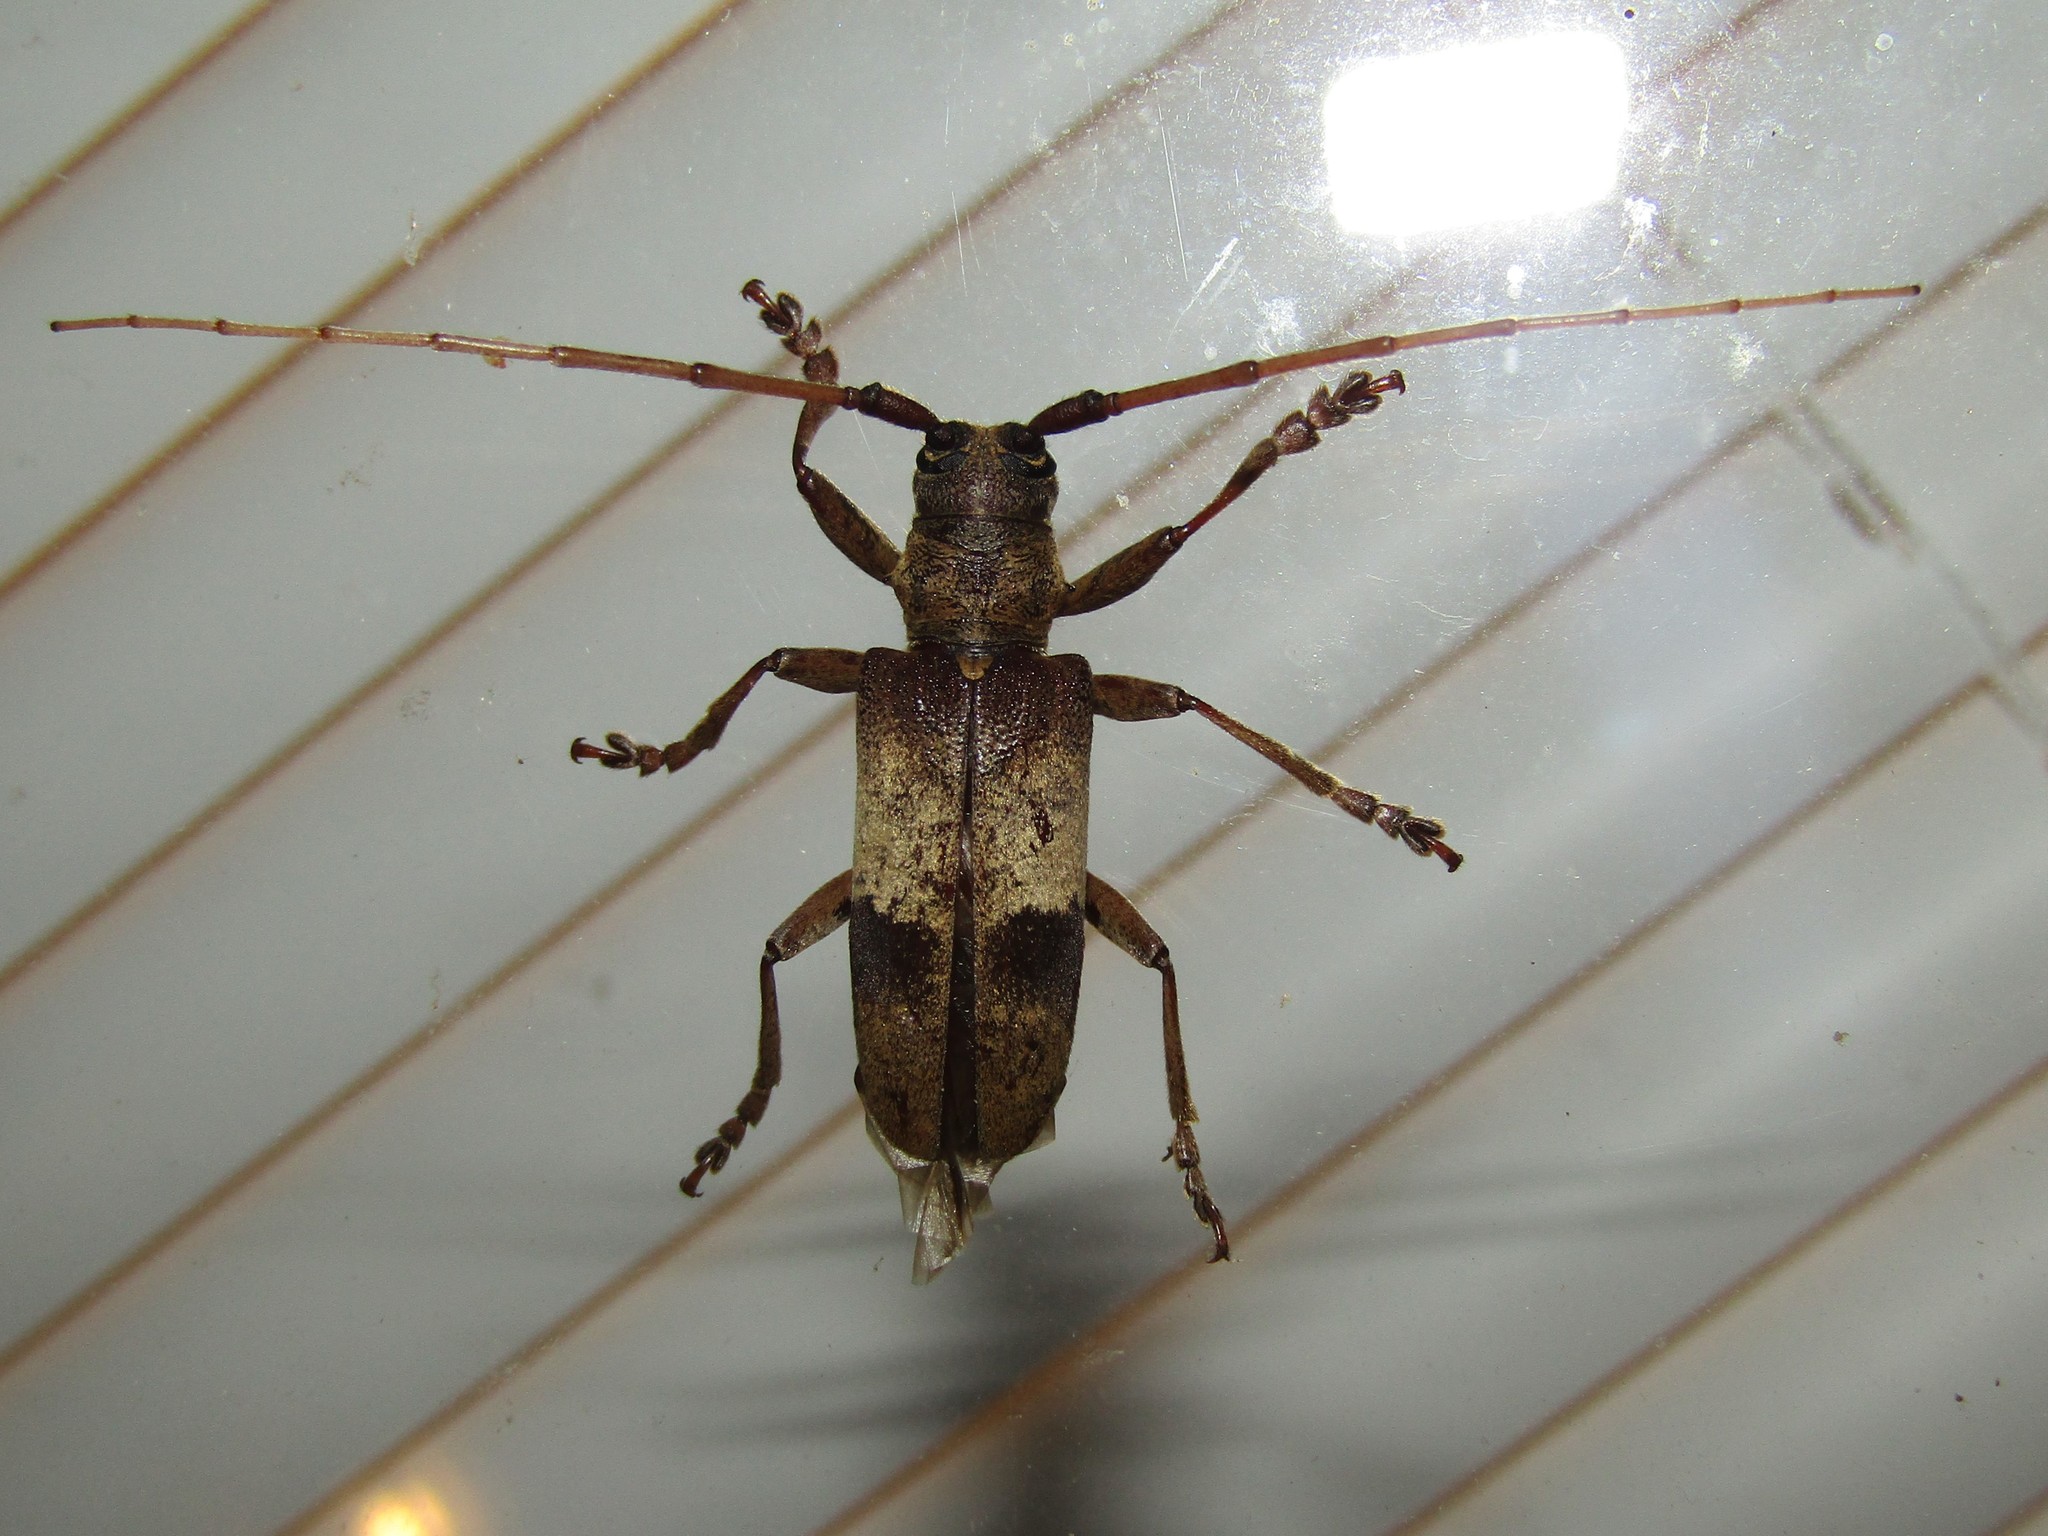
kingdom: Animalia
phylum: Arthropoda
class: Insecta
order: Coleoptera
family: Cerambycidae
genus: Goes
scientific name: Goes pulcher
